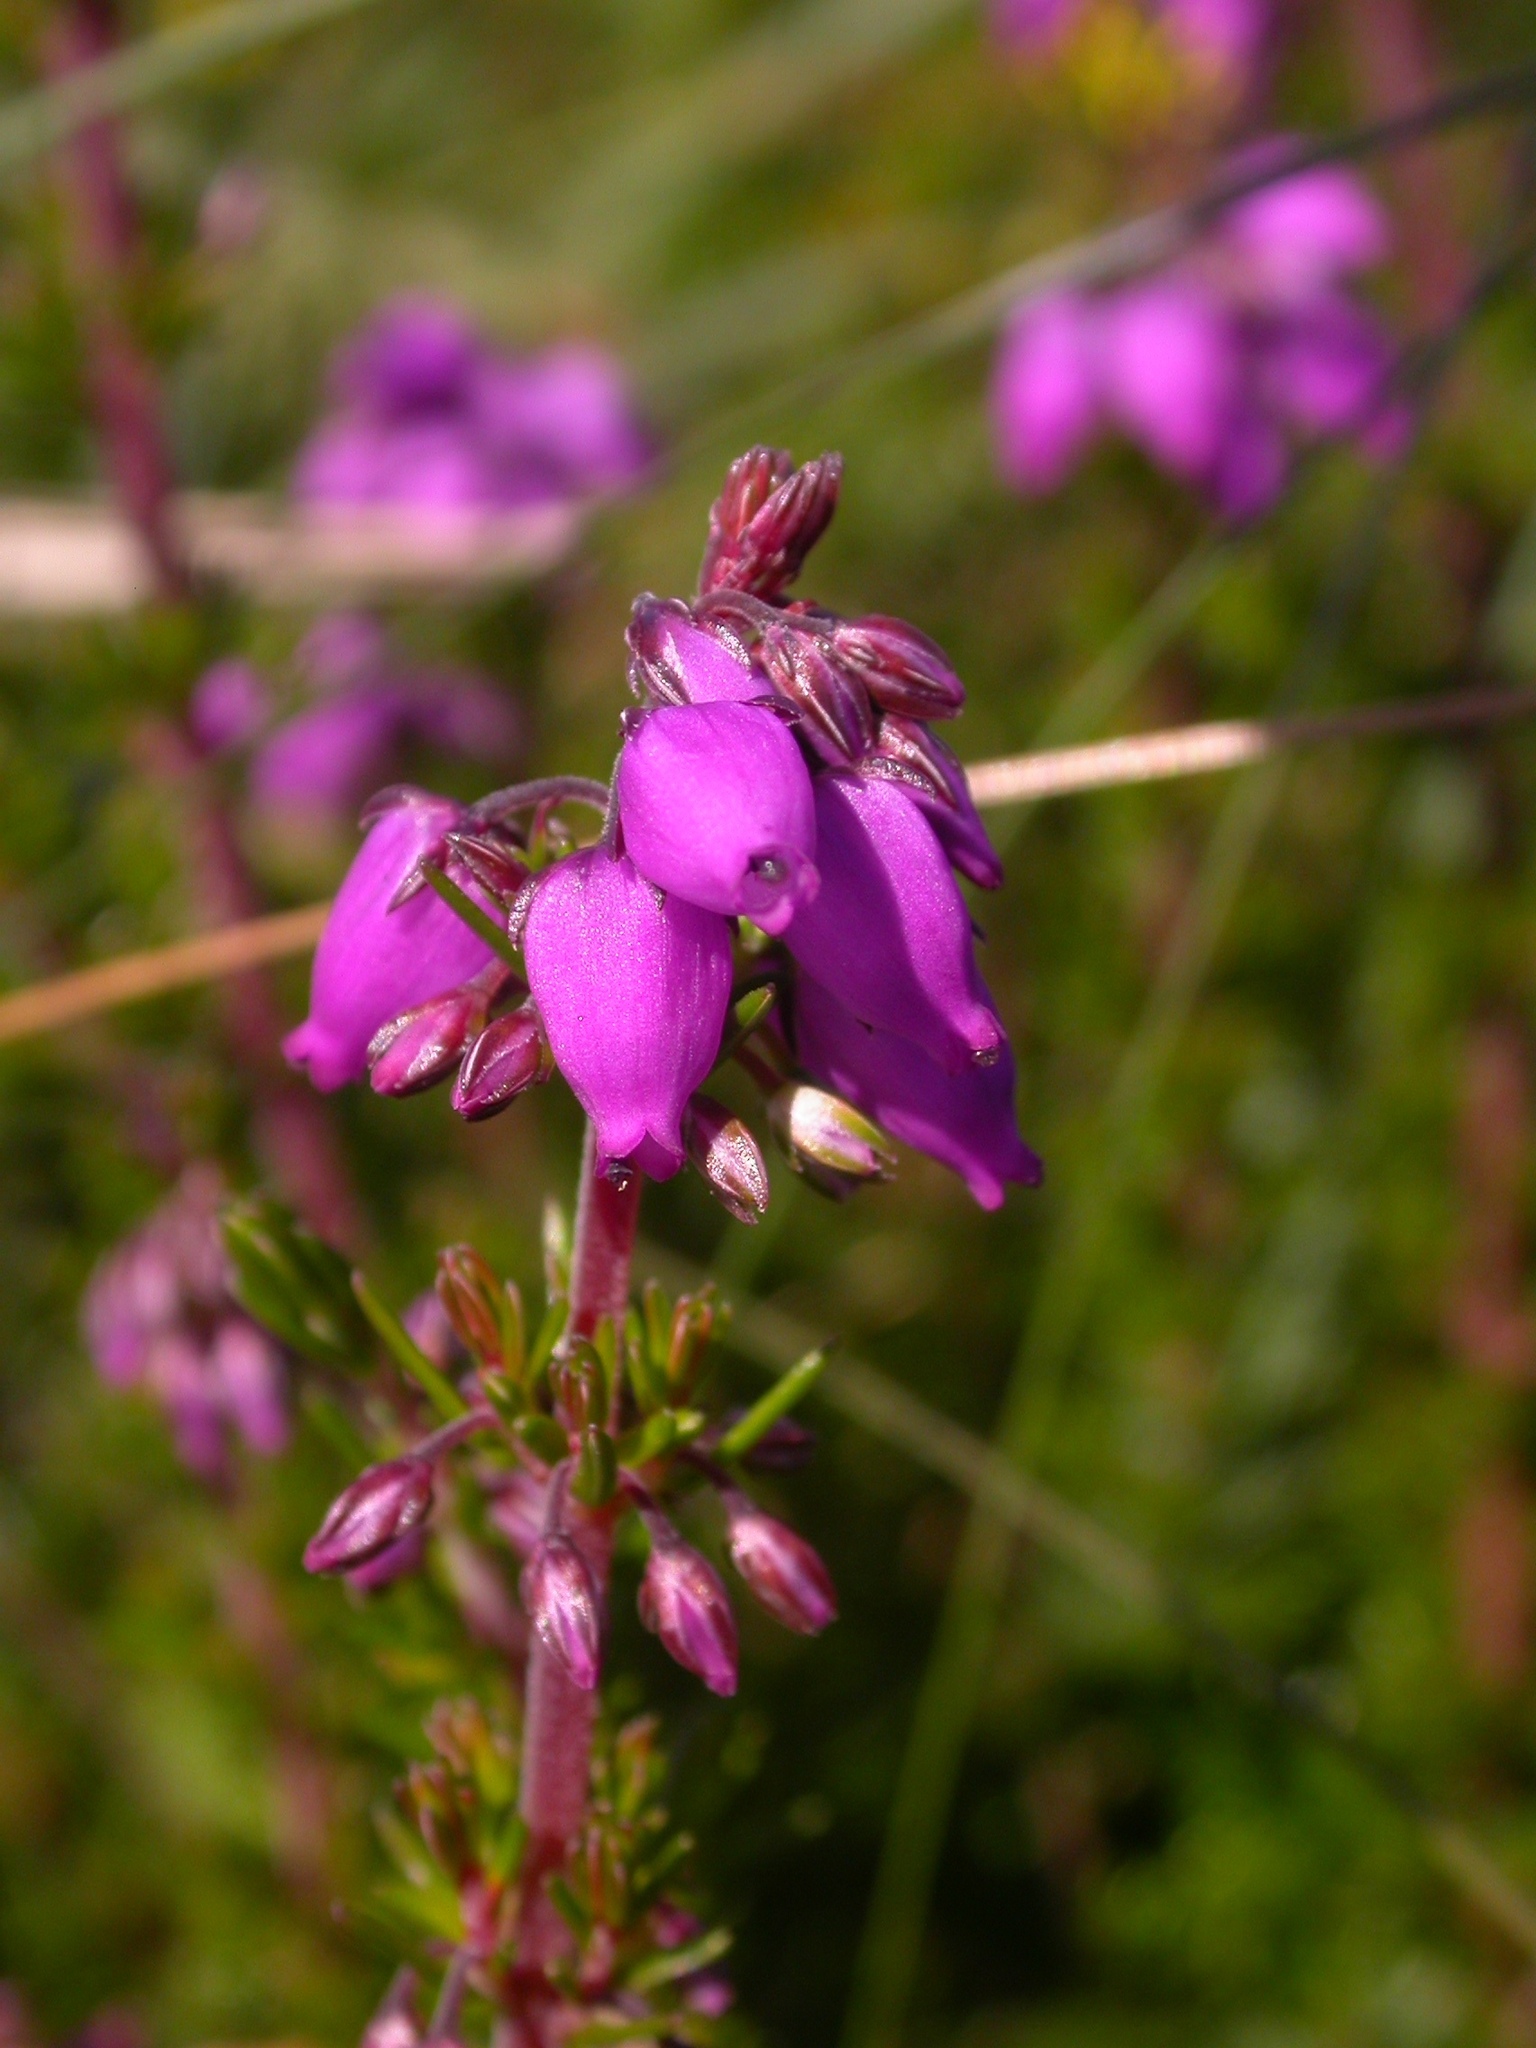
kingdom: Plantae
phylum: Tracheophyta
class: Magnoliopsida
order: Ericales
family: Ericaceae
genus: Erica
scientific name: Erica cinerea
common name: Bell heather
